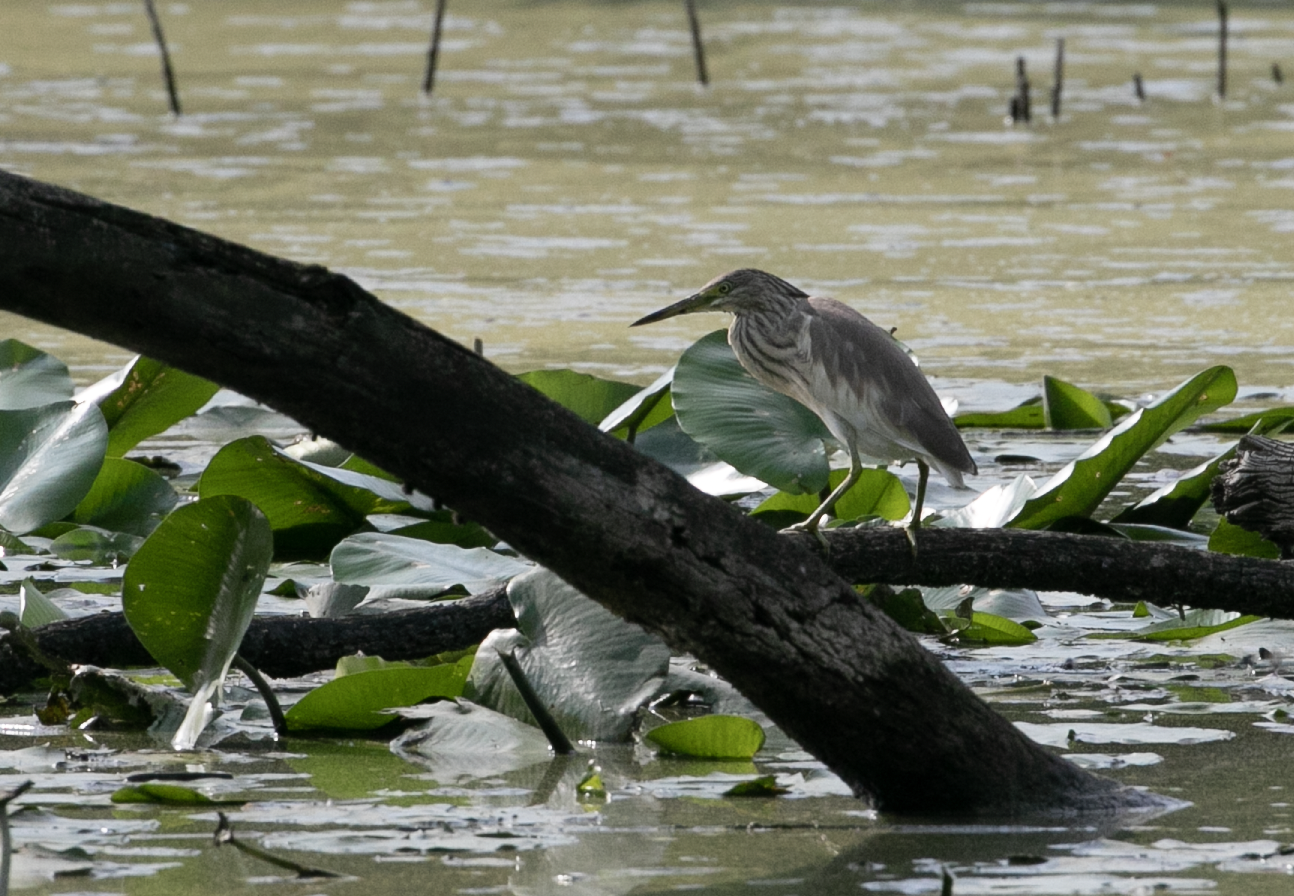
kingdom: Animalia
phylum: Chordata
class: Aves
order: Pelecaniformes
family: Ardeidae
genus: Ardeola
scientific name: Ardeola ralloides
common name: Squacco heron
